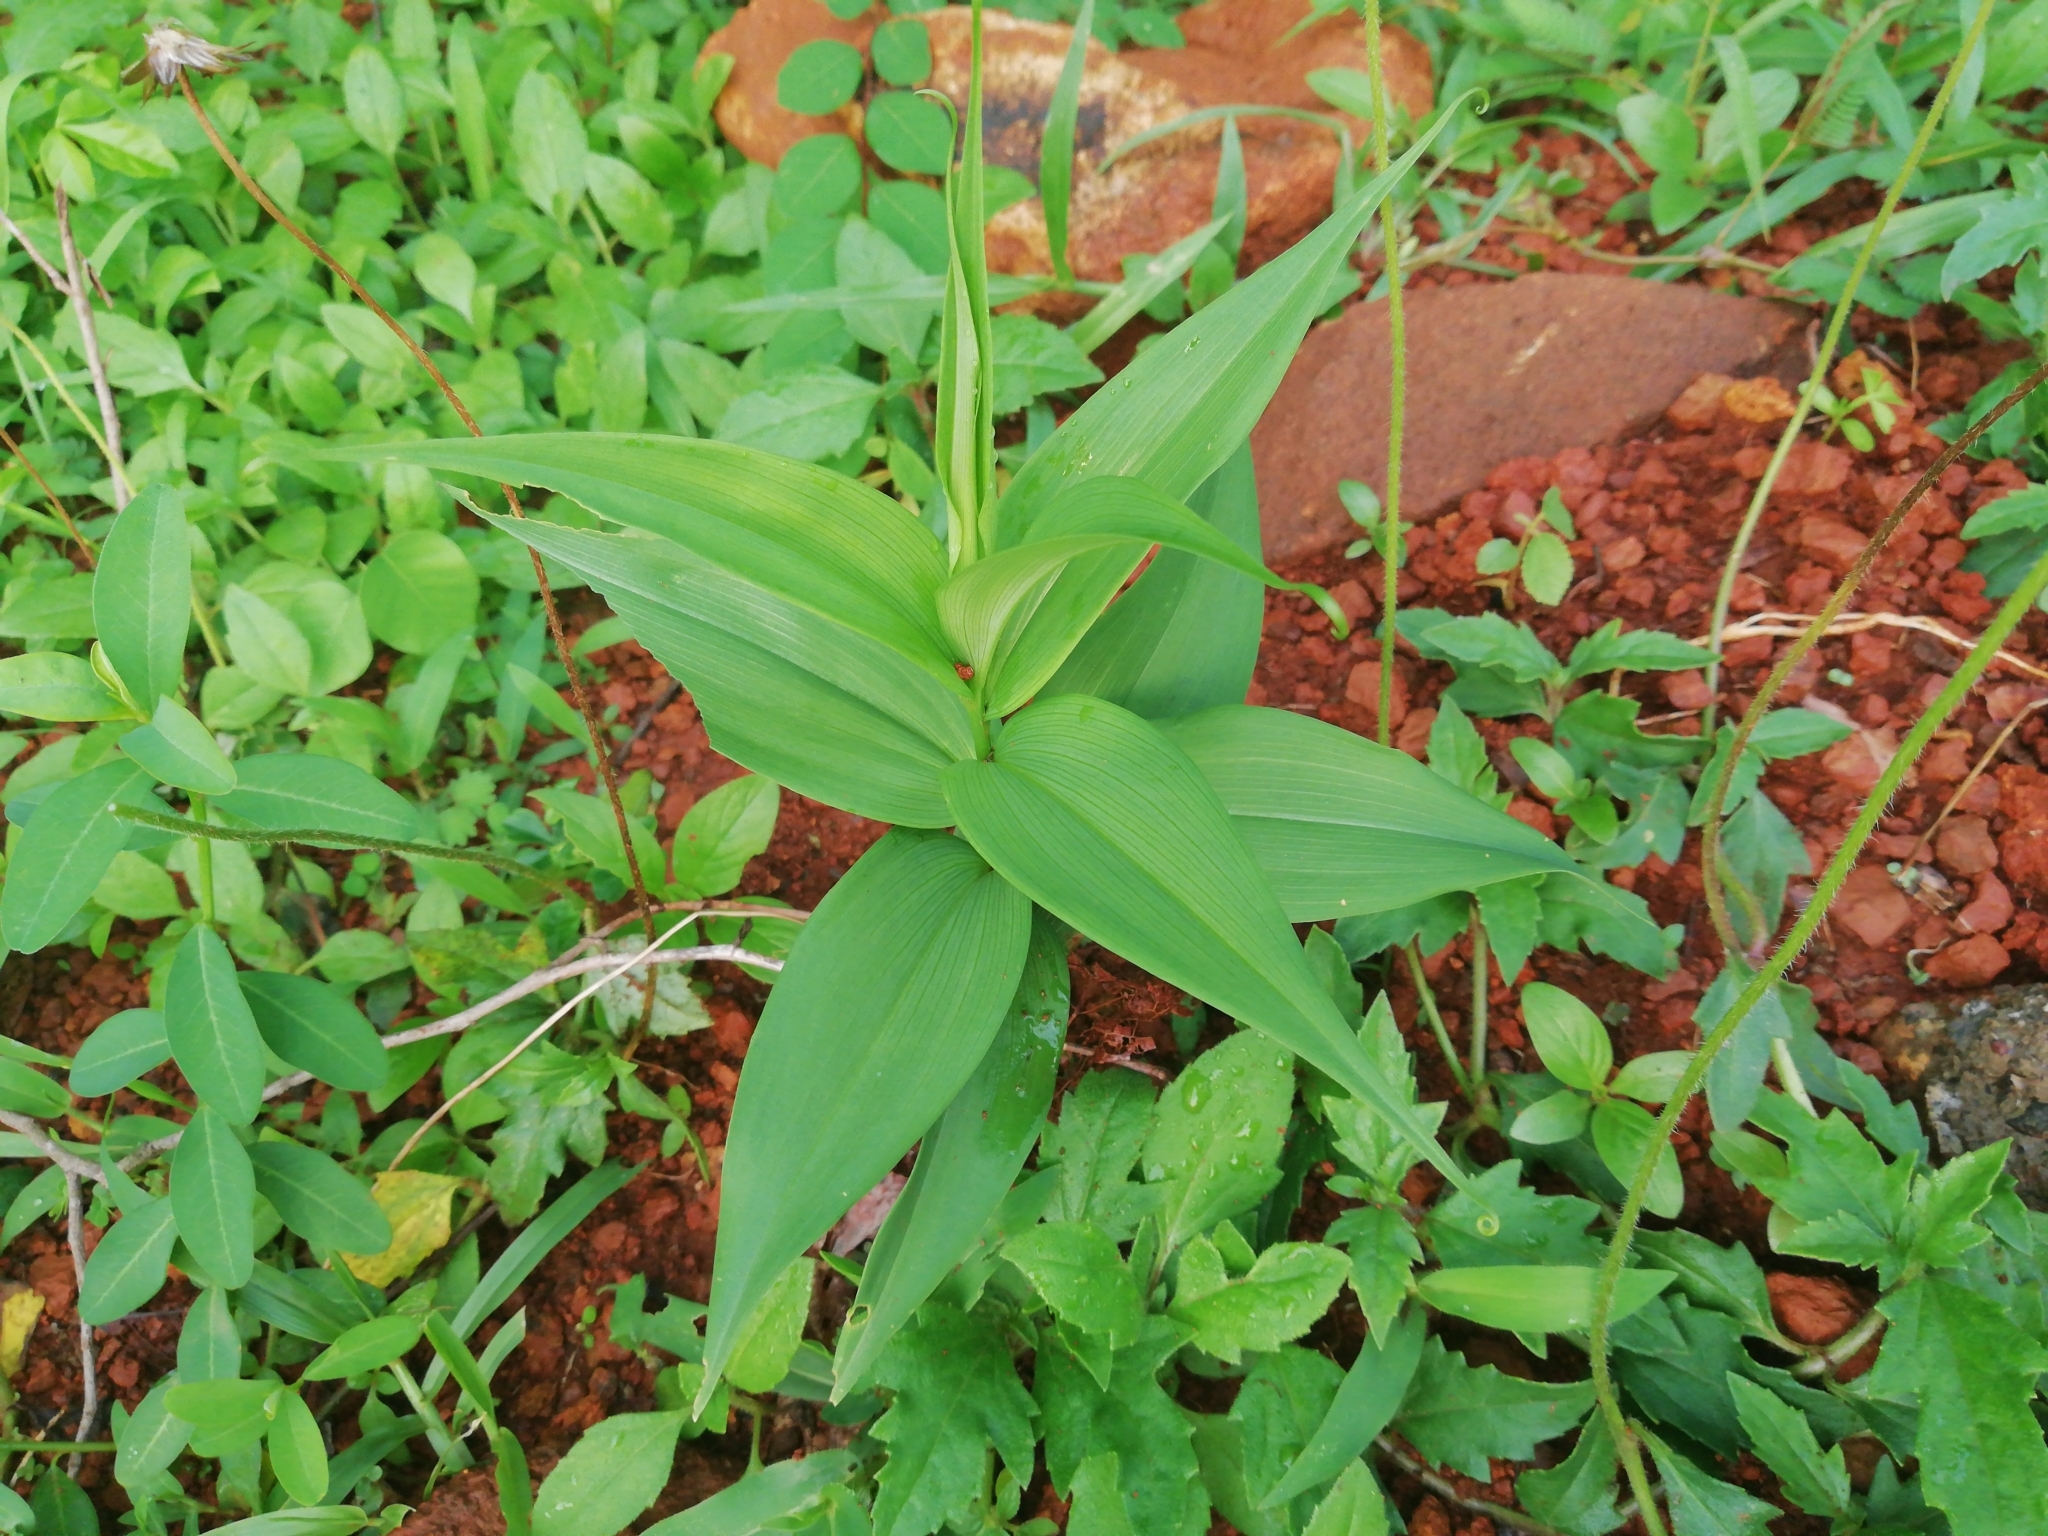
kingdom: Plantae
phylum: Tracheophyta
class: Liliopsida
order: Liliales
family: Colchicaceae
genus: Gloriosa
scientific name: Gloriosa superba
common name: Flame lily
